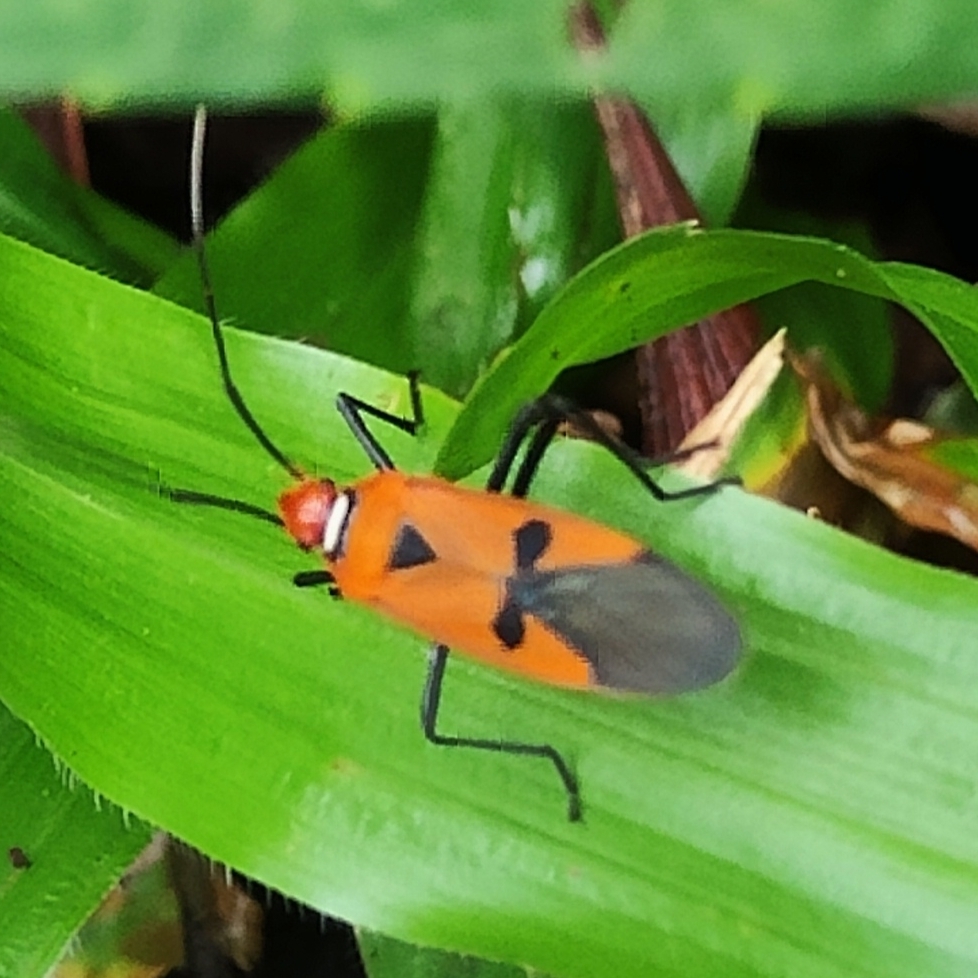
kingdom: Animalia
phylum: Arthropoda
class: Insecta
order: Hemiptera
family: Pyrrhocoridae
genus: Dysdercus
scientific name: Dysdercus poecilus
